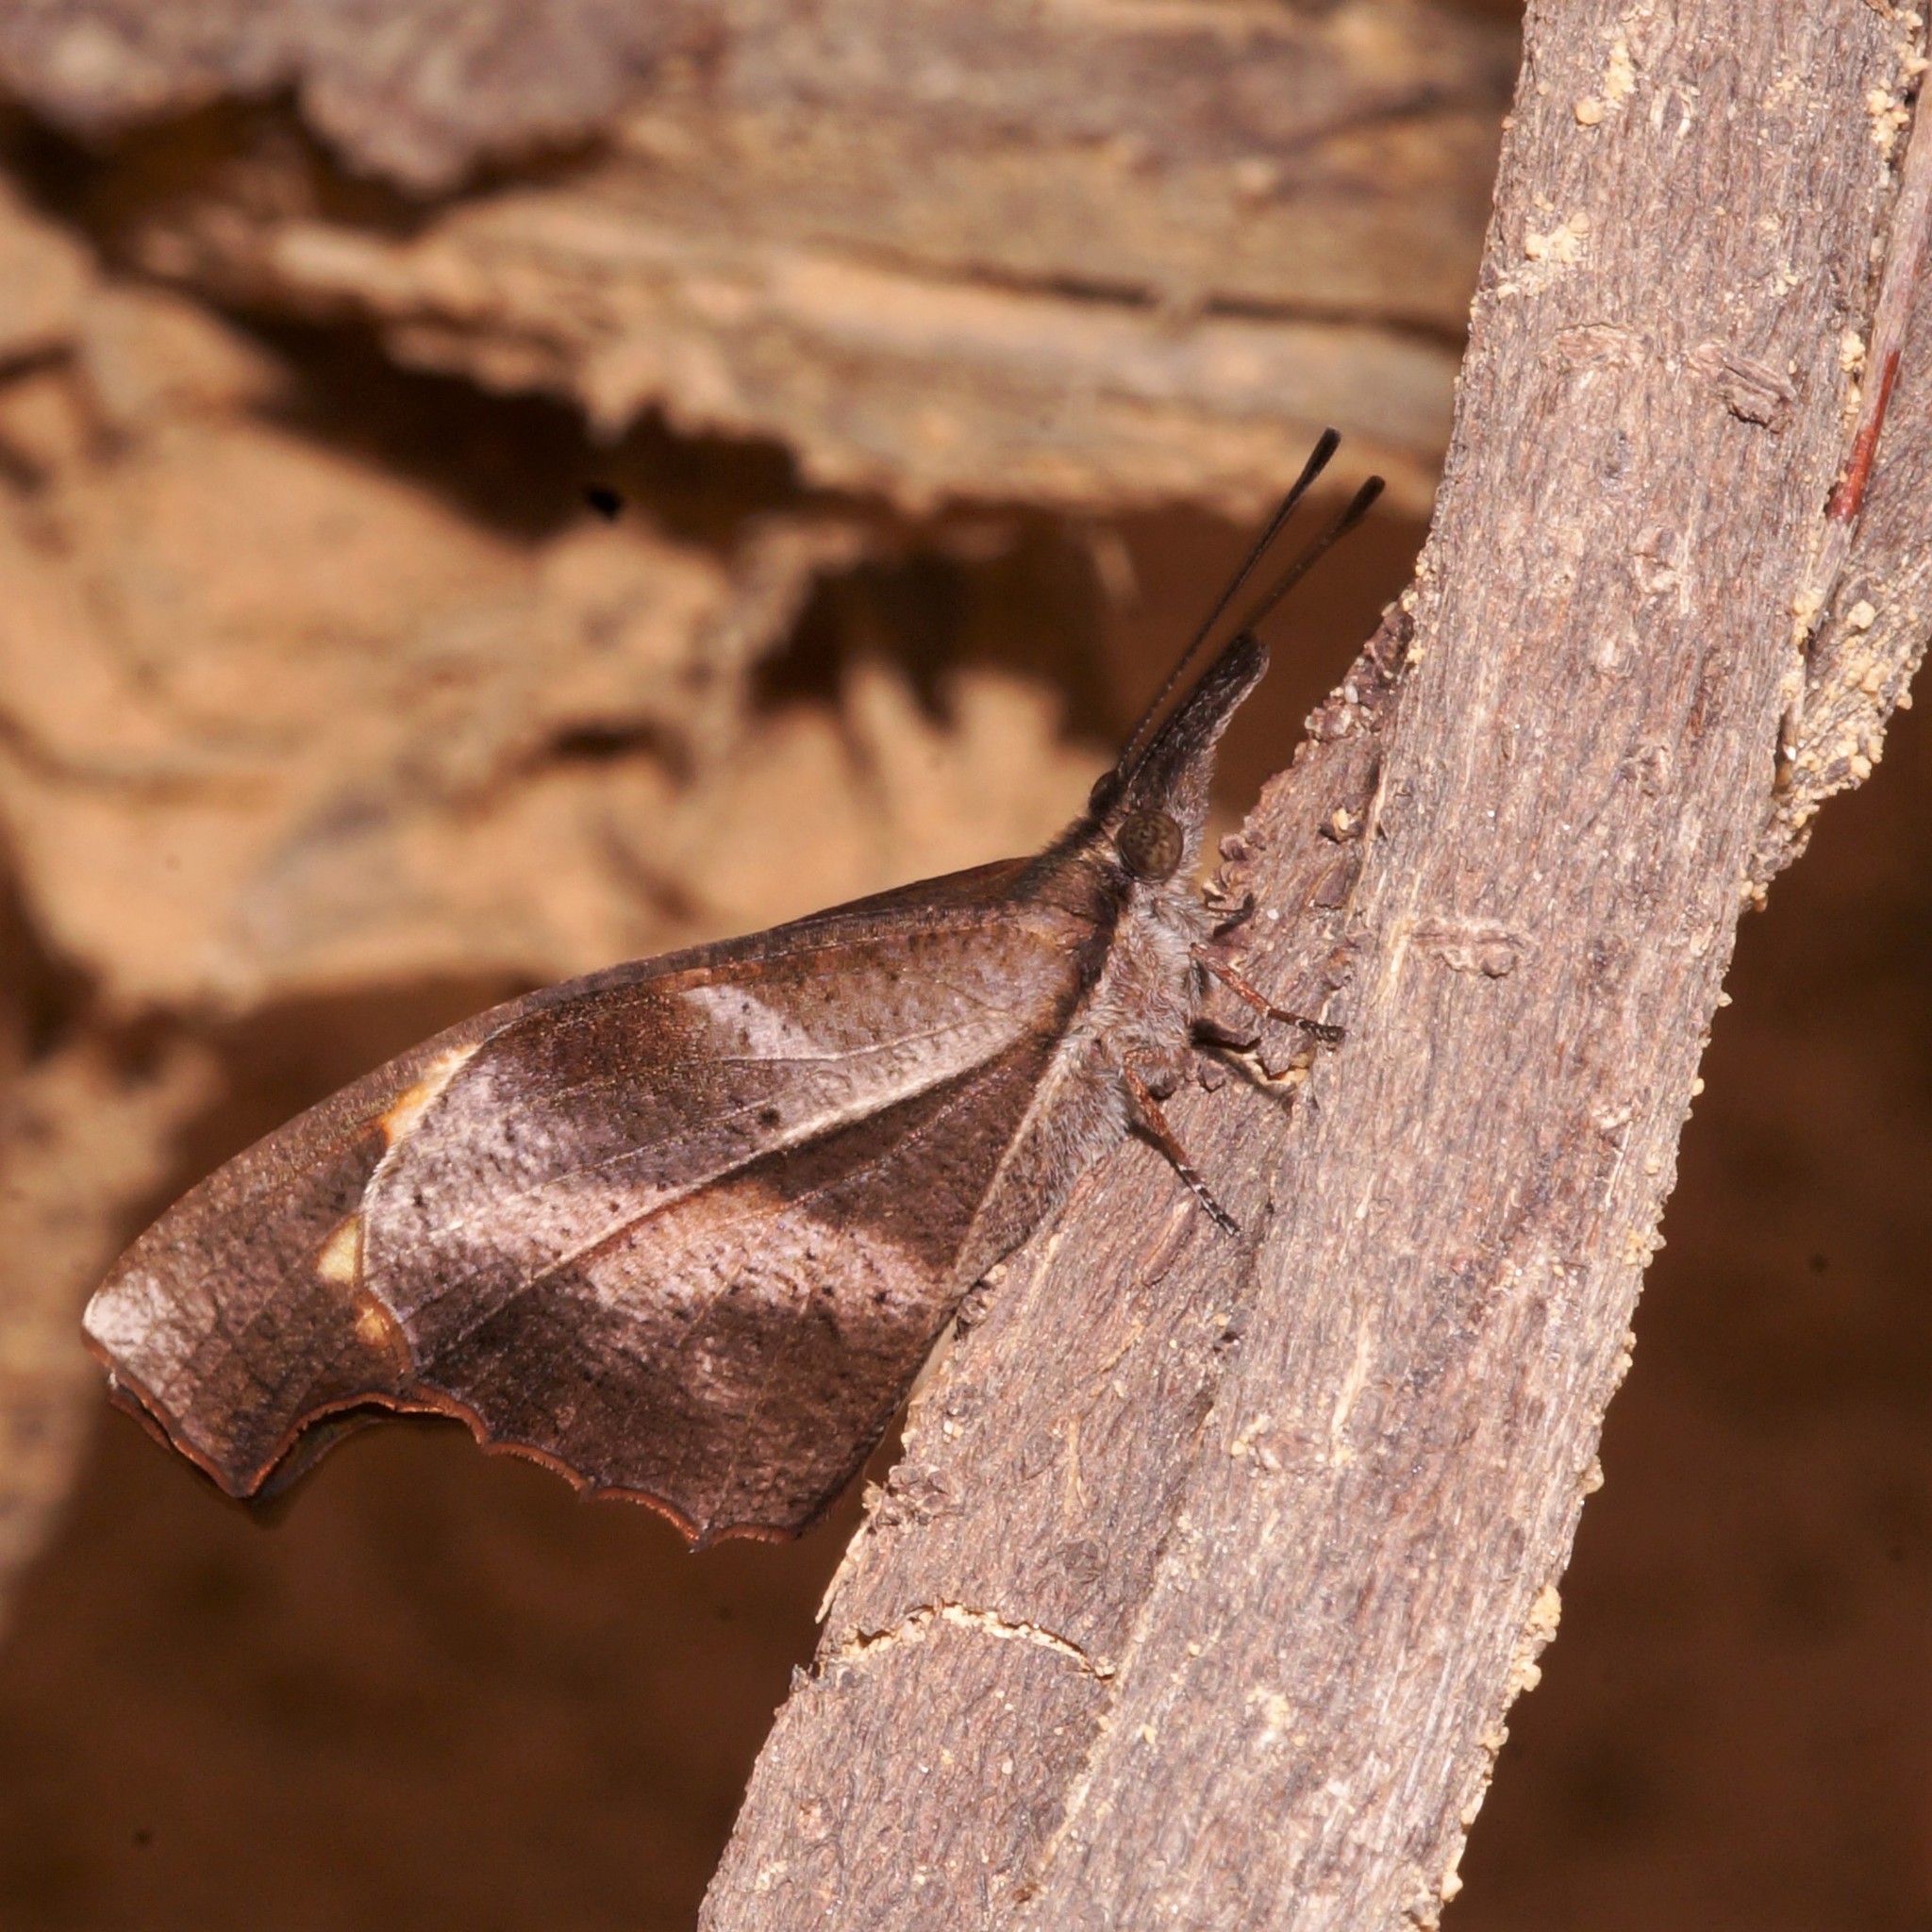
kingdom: Animalia
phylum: Arthropoda
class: Insecta
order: Lepidoptera
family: Nymphalidae
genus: Libythea
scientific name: Libythea myrrha
